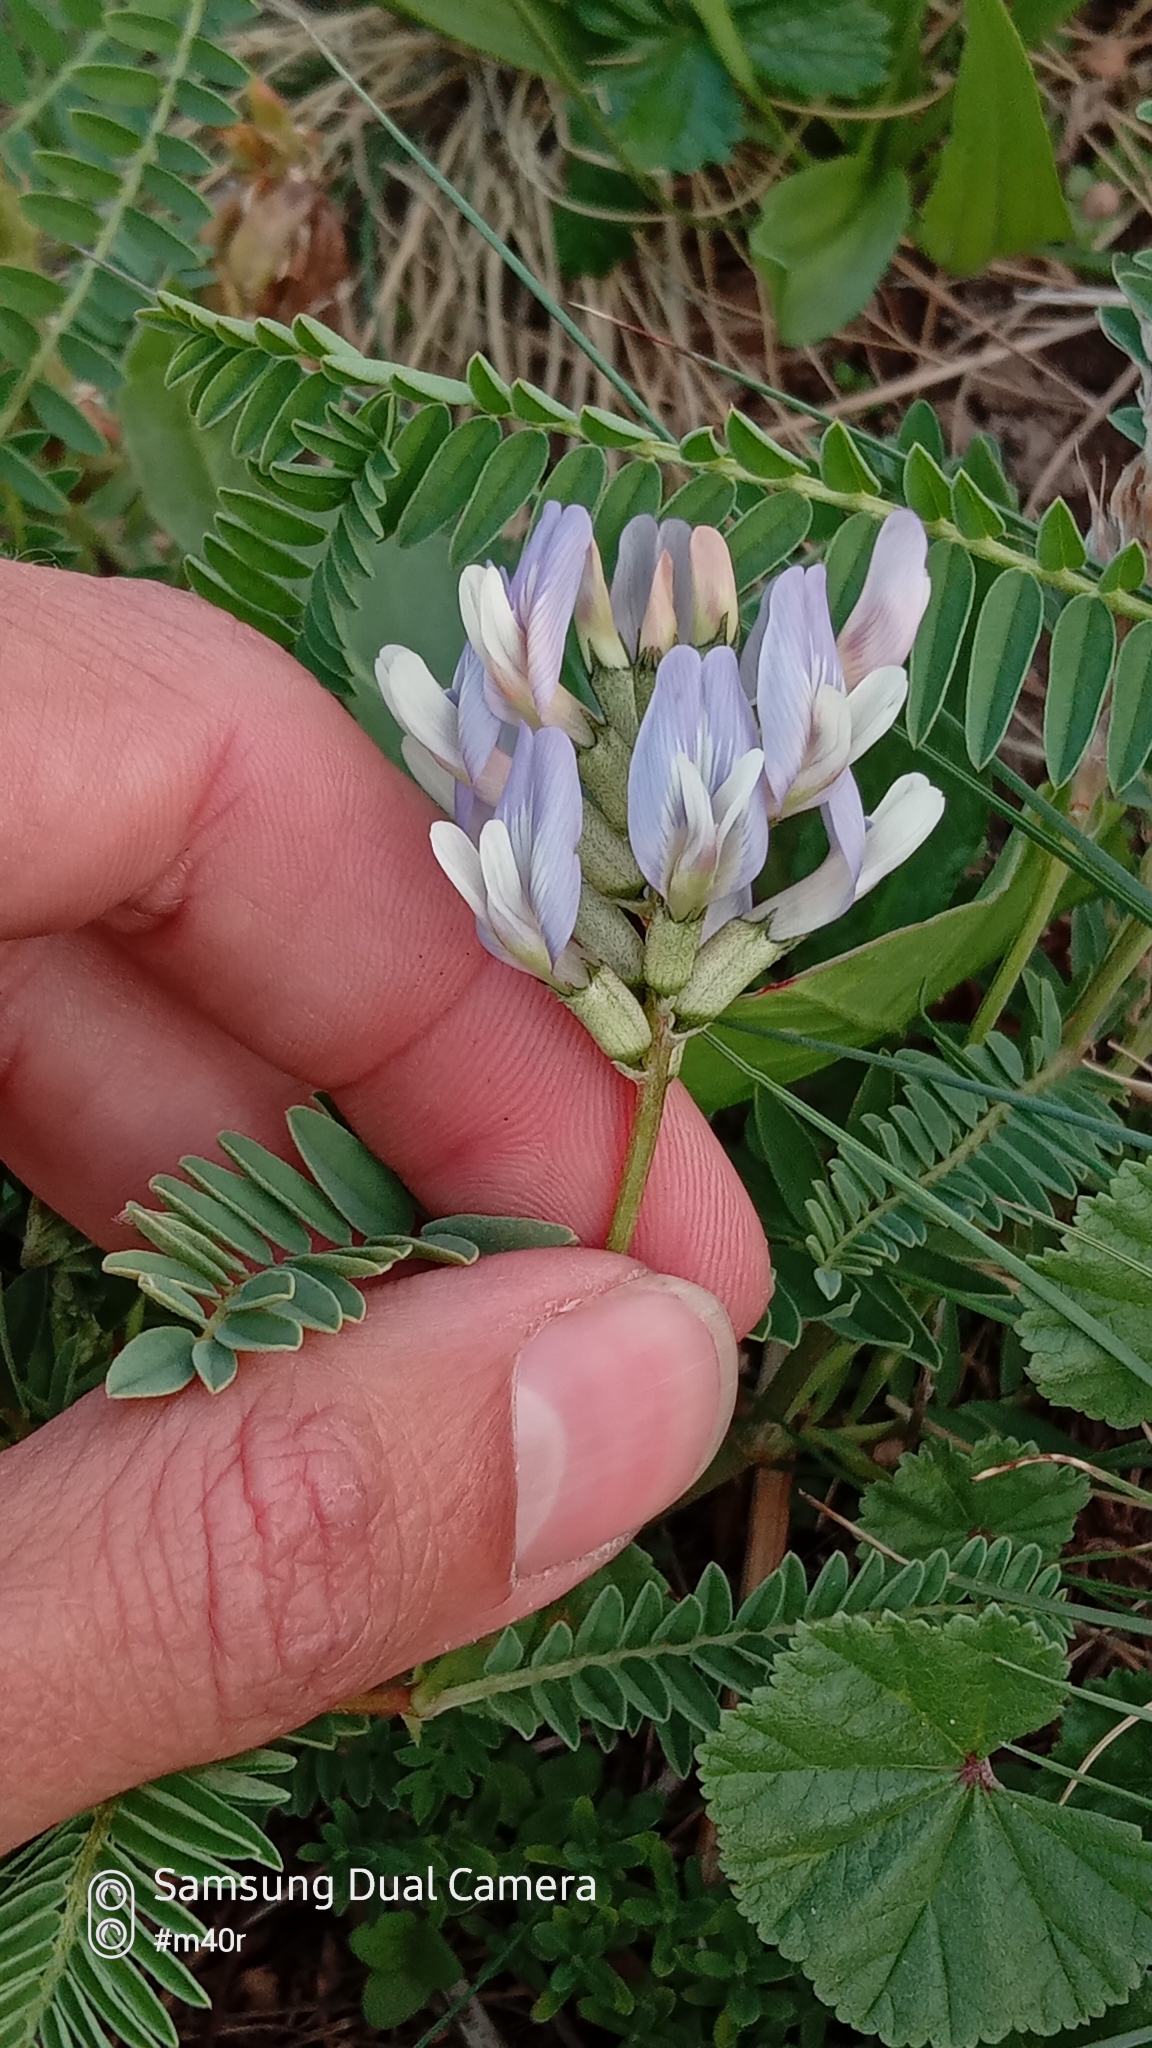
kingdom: Plantae
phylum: Tracheophyta
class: Magnoliopsida
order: Fabales
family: Fabaceae
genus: Astragalus
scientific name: Astragalus tibetanus
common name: Tibet milkvetch
